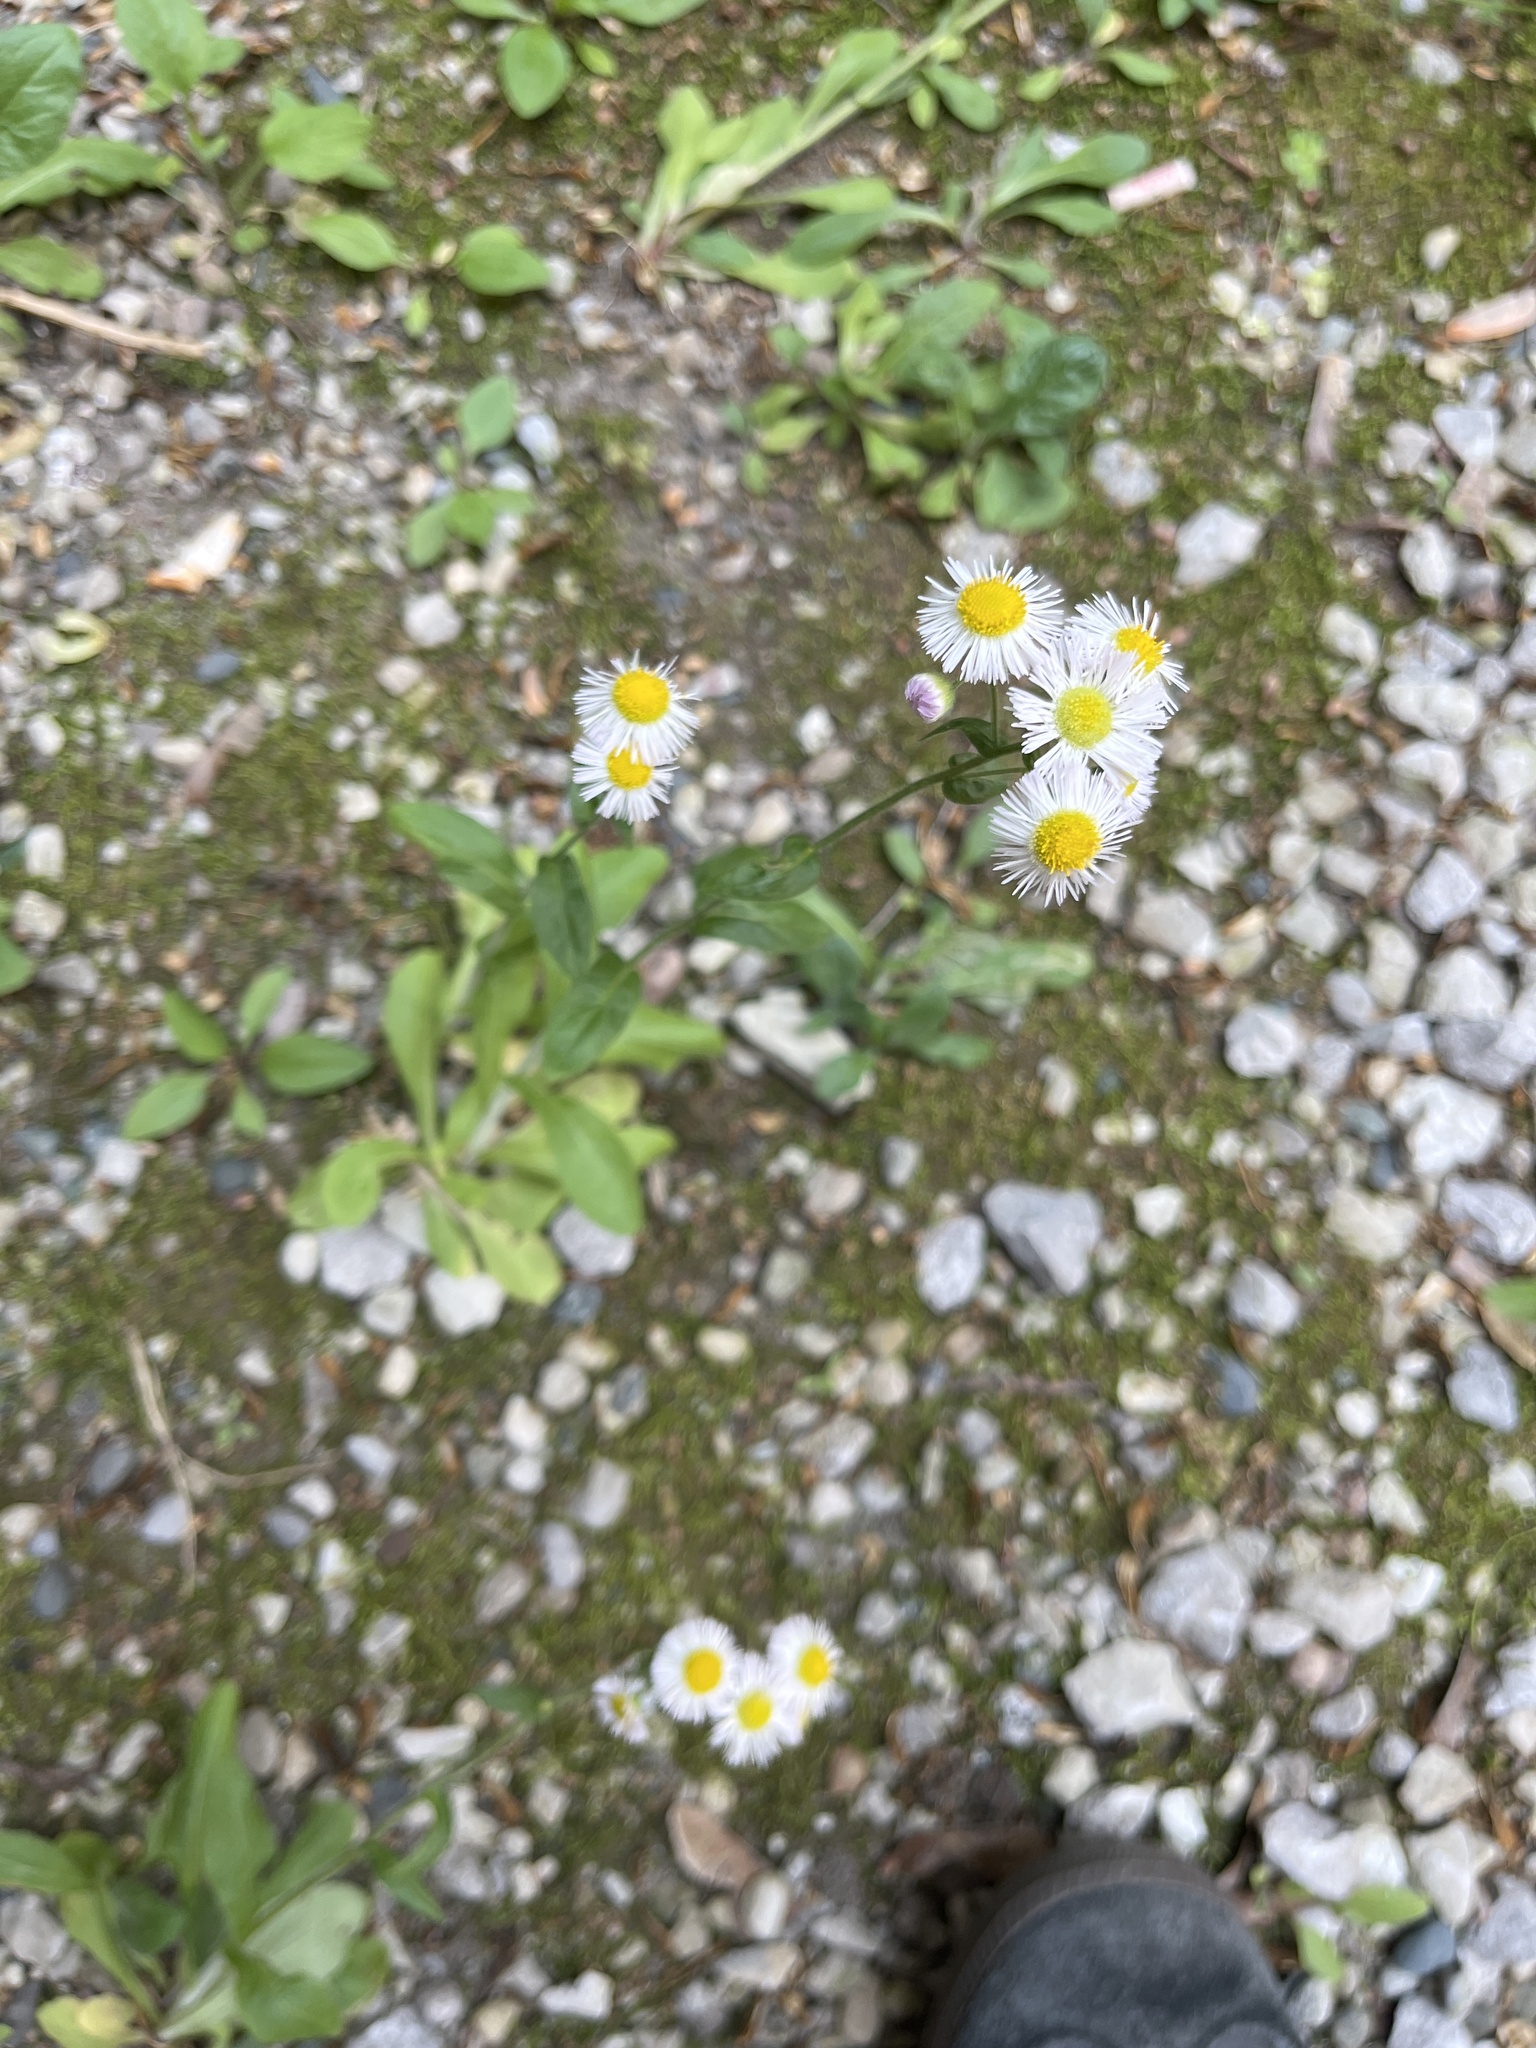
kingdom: Plantae
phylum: Tracheophyta
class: Magnoliopsida
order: Asterales
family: Asteraceae
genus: Erigeron
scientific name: Erigeron philadelphicus
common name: Robin's-plantain
